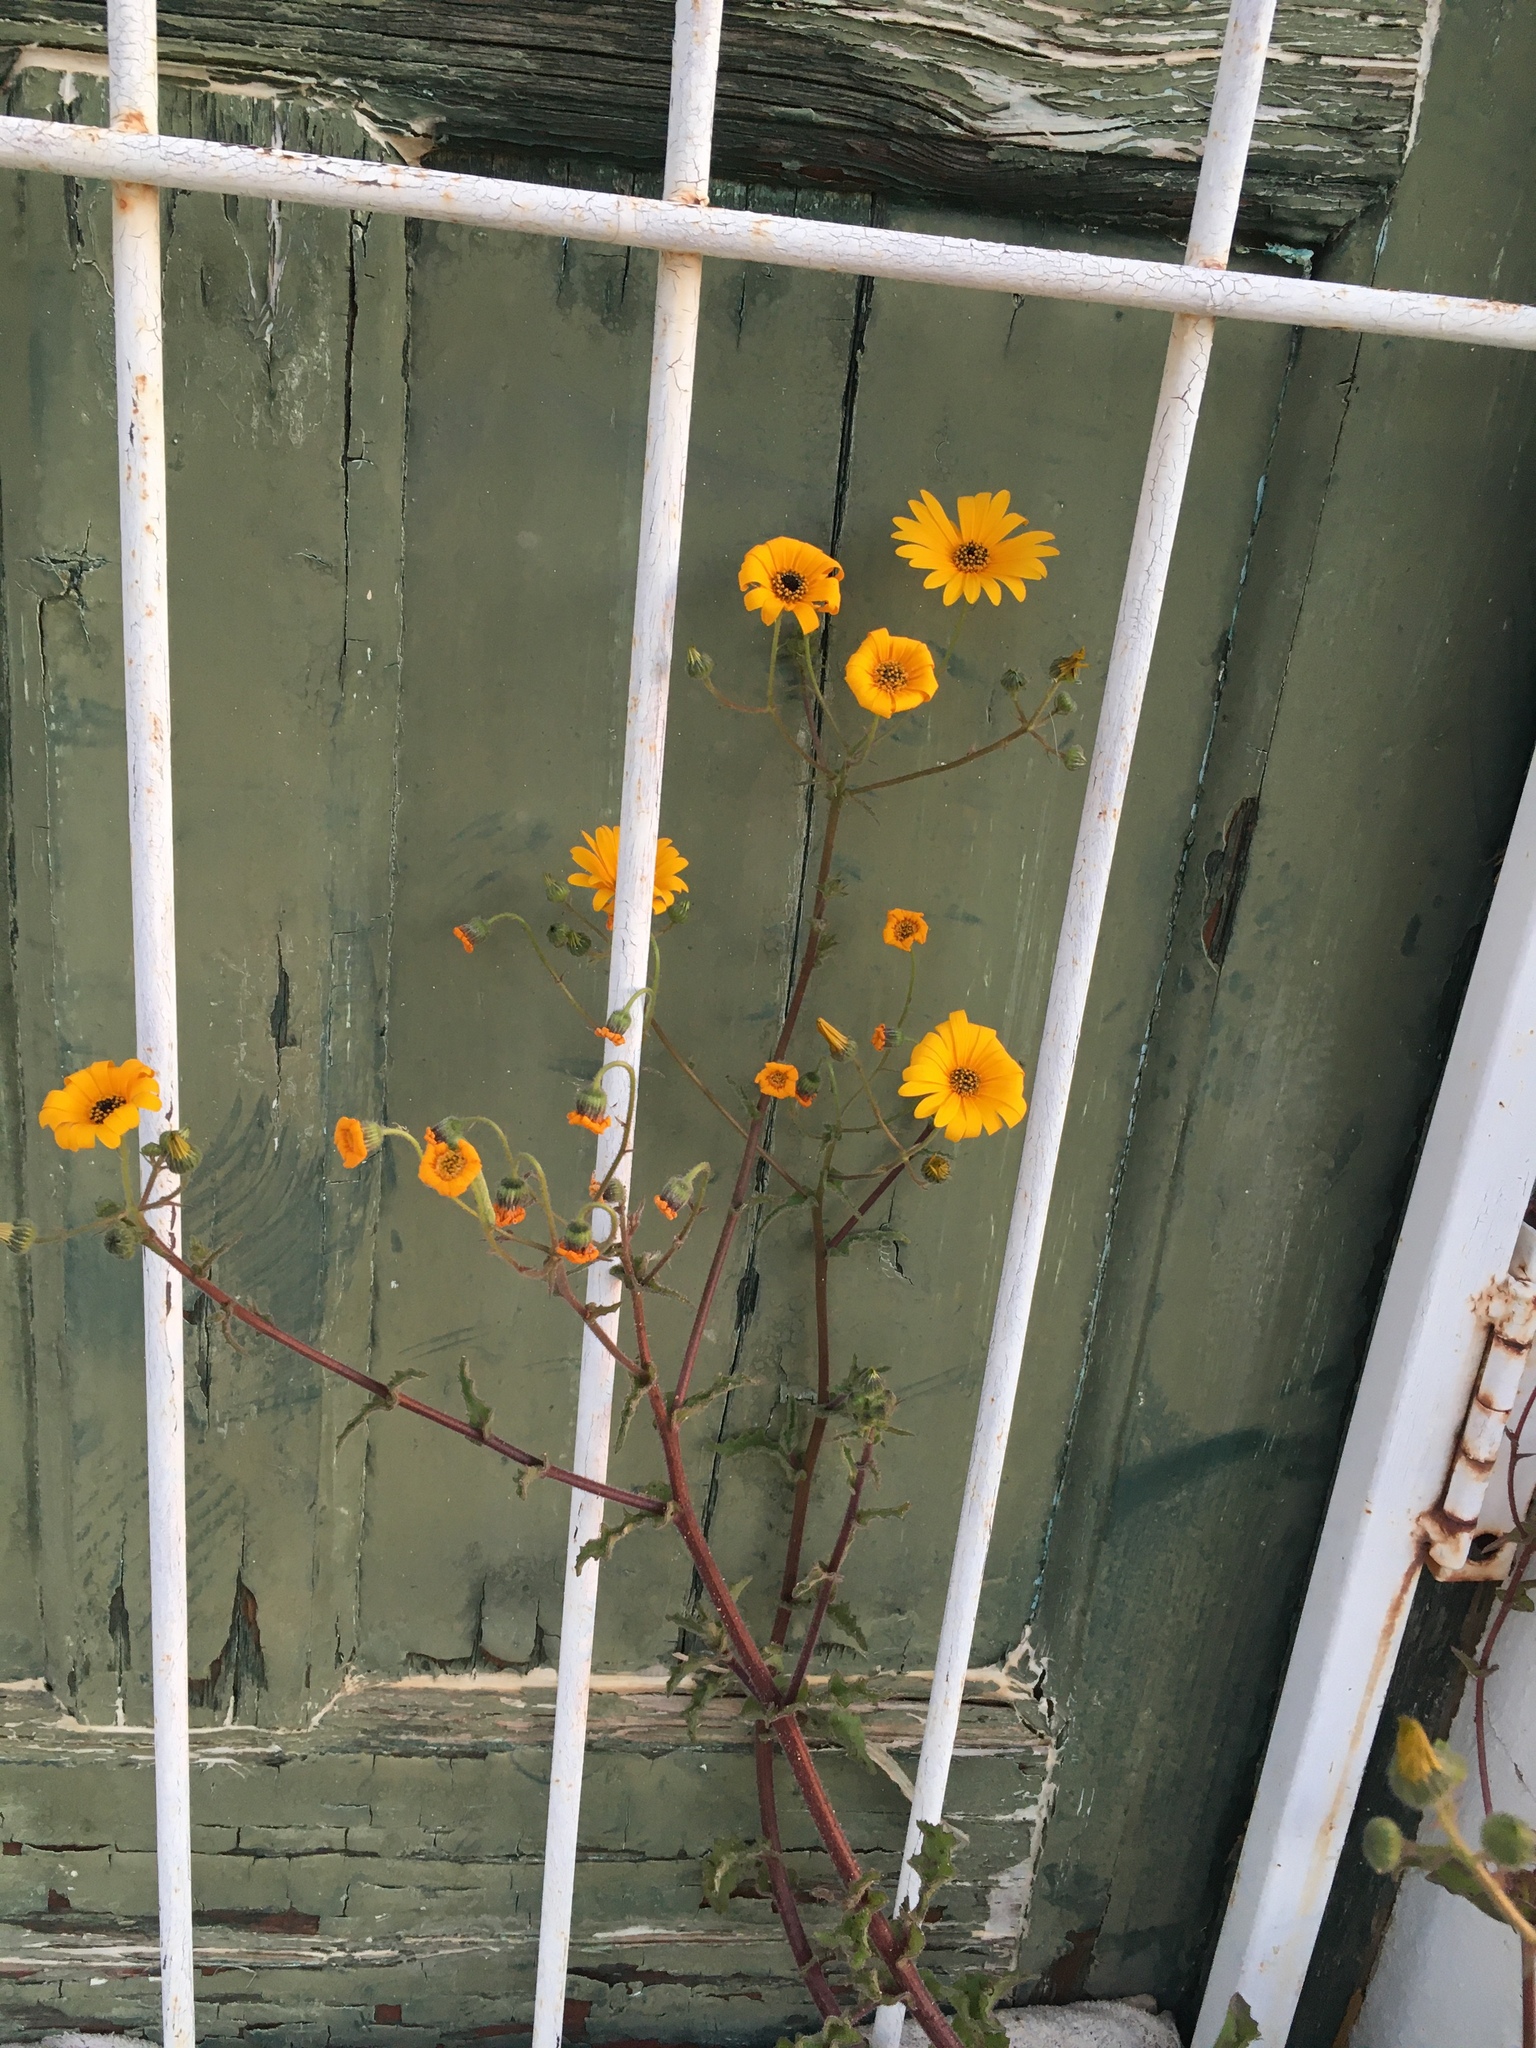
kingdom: Plantae
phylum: Tracheophyta
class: Magnoliopsida
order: Asterales
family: Asteraceae
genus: Osteospermum
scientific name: Osteospermum amplectens
